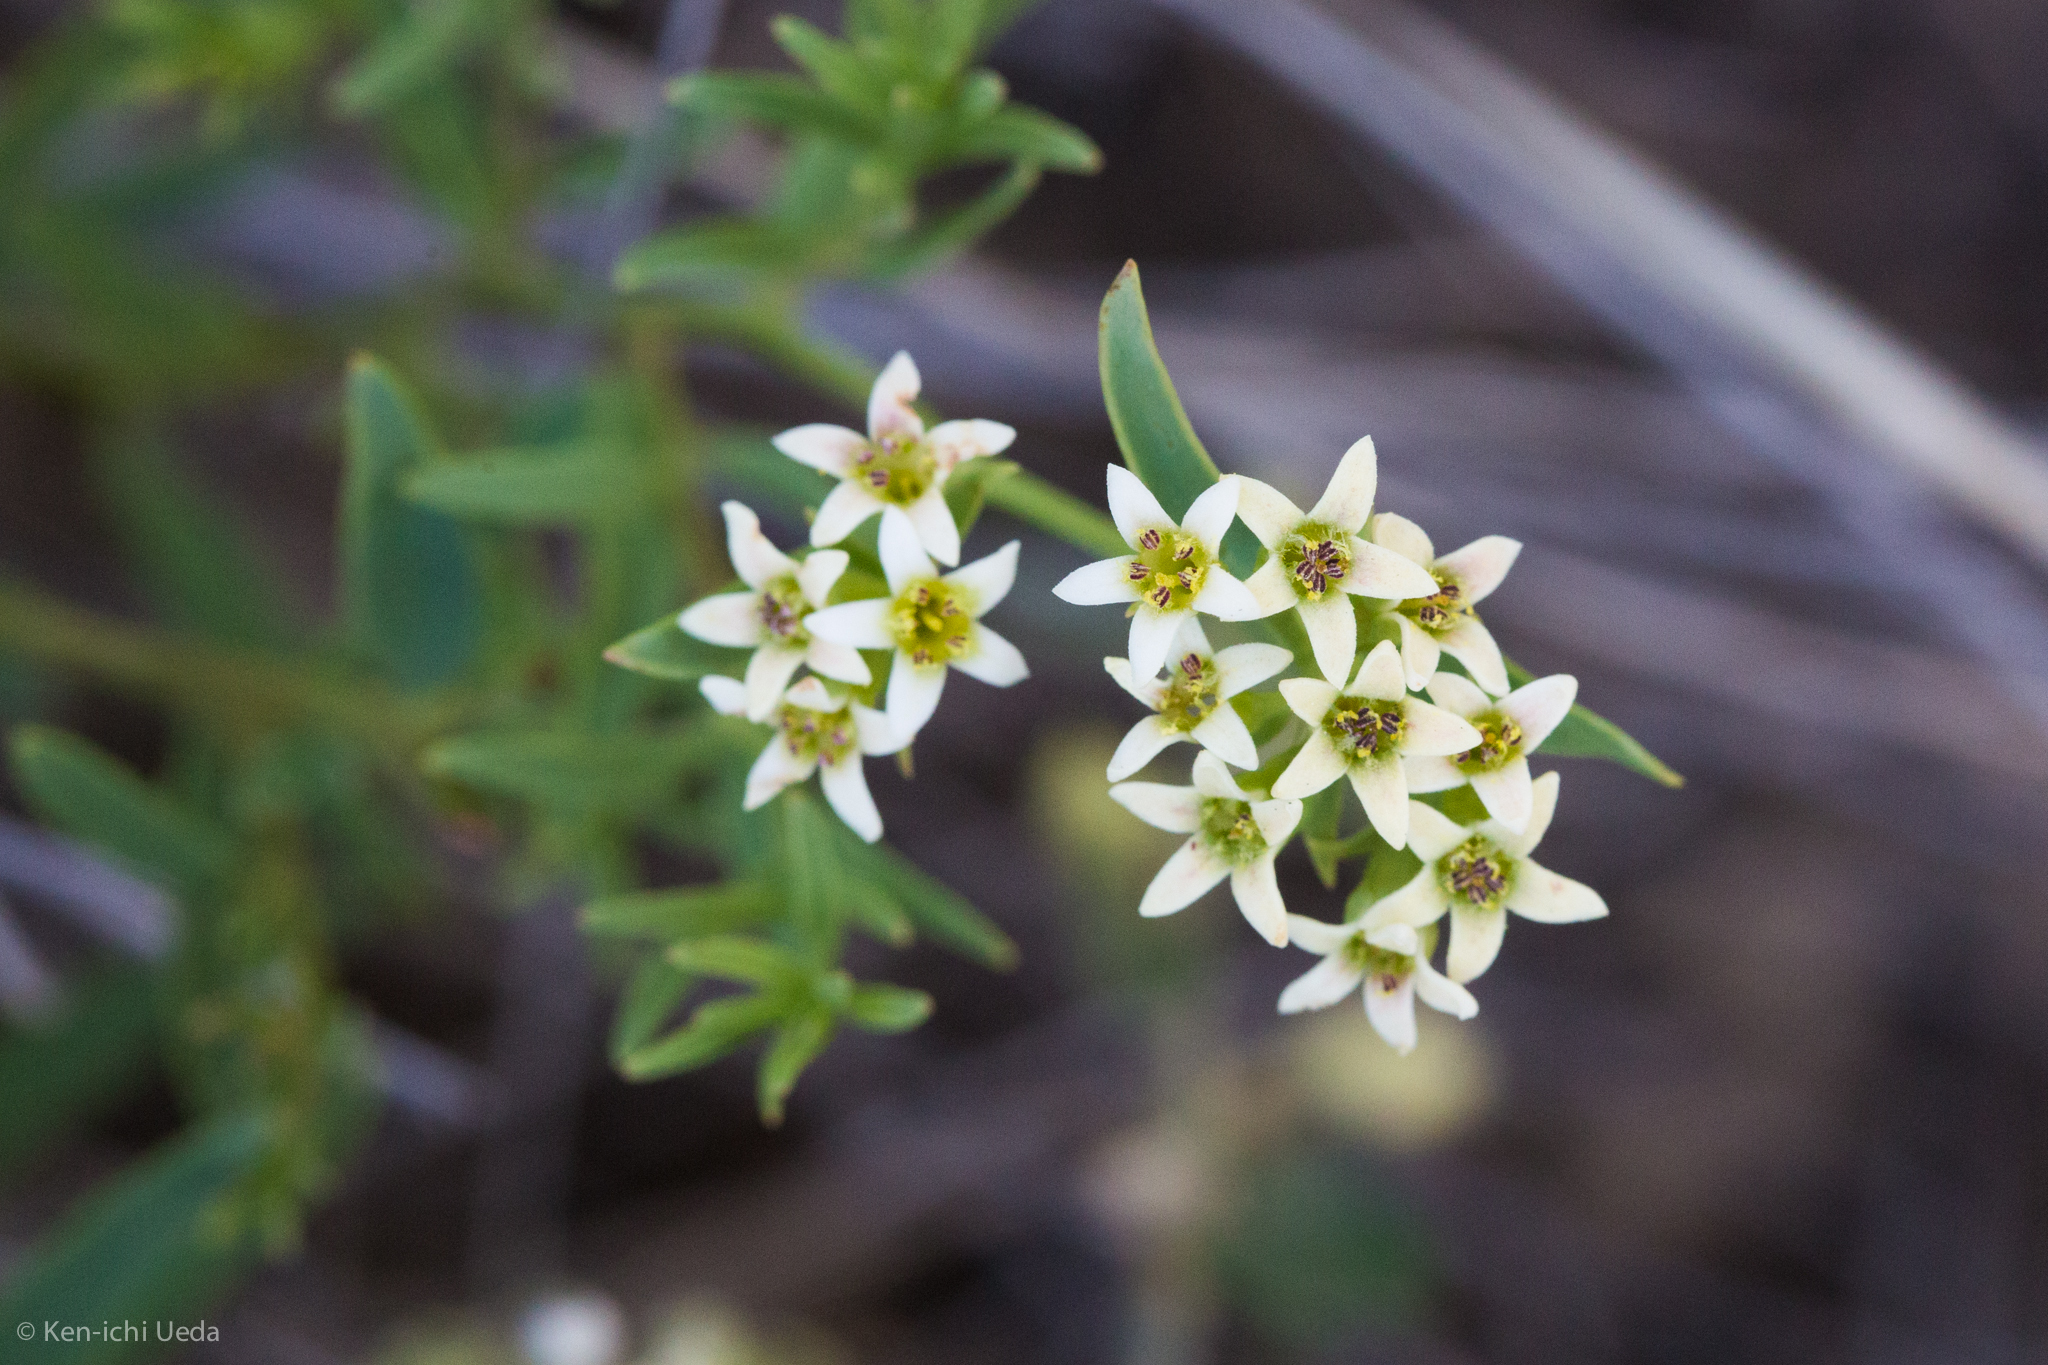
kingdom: Plantae
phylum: Tracheophyta
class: Magnoliopsida
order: Santalales
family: Comandraceae
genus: Comandra
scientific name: Comandra umbellata
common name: Bastard toadflax
